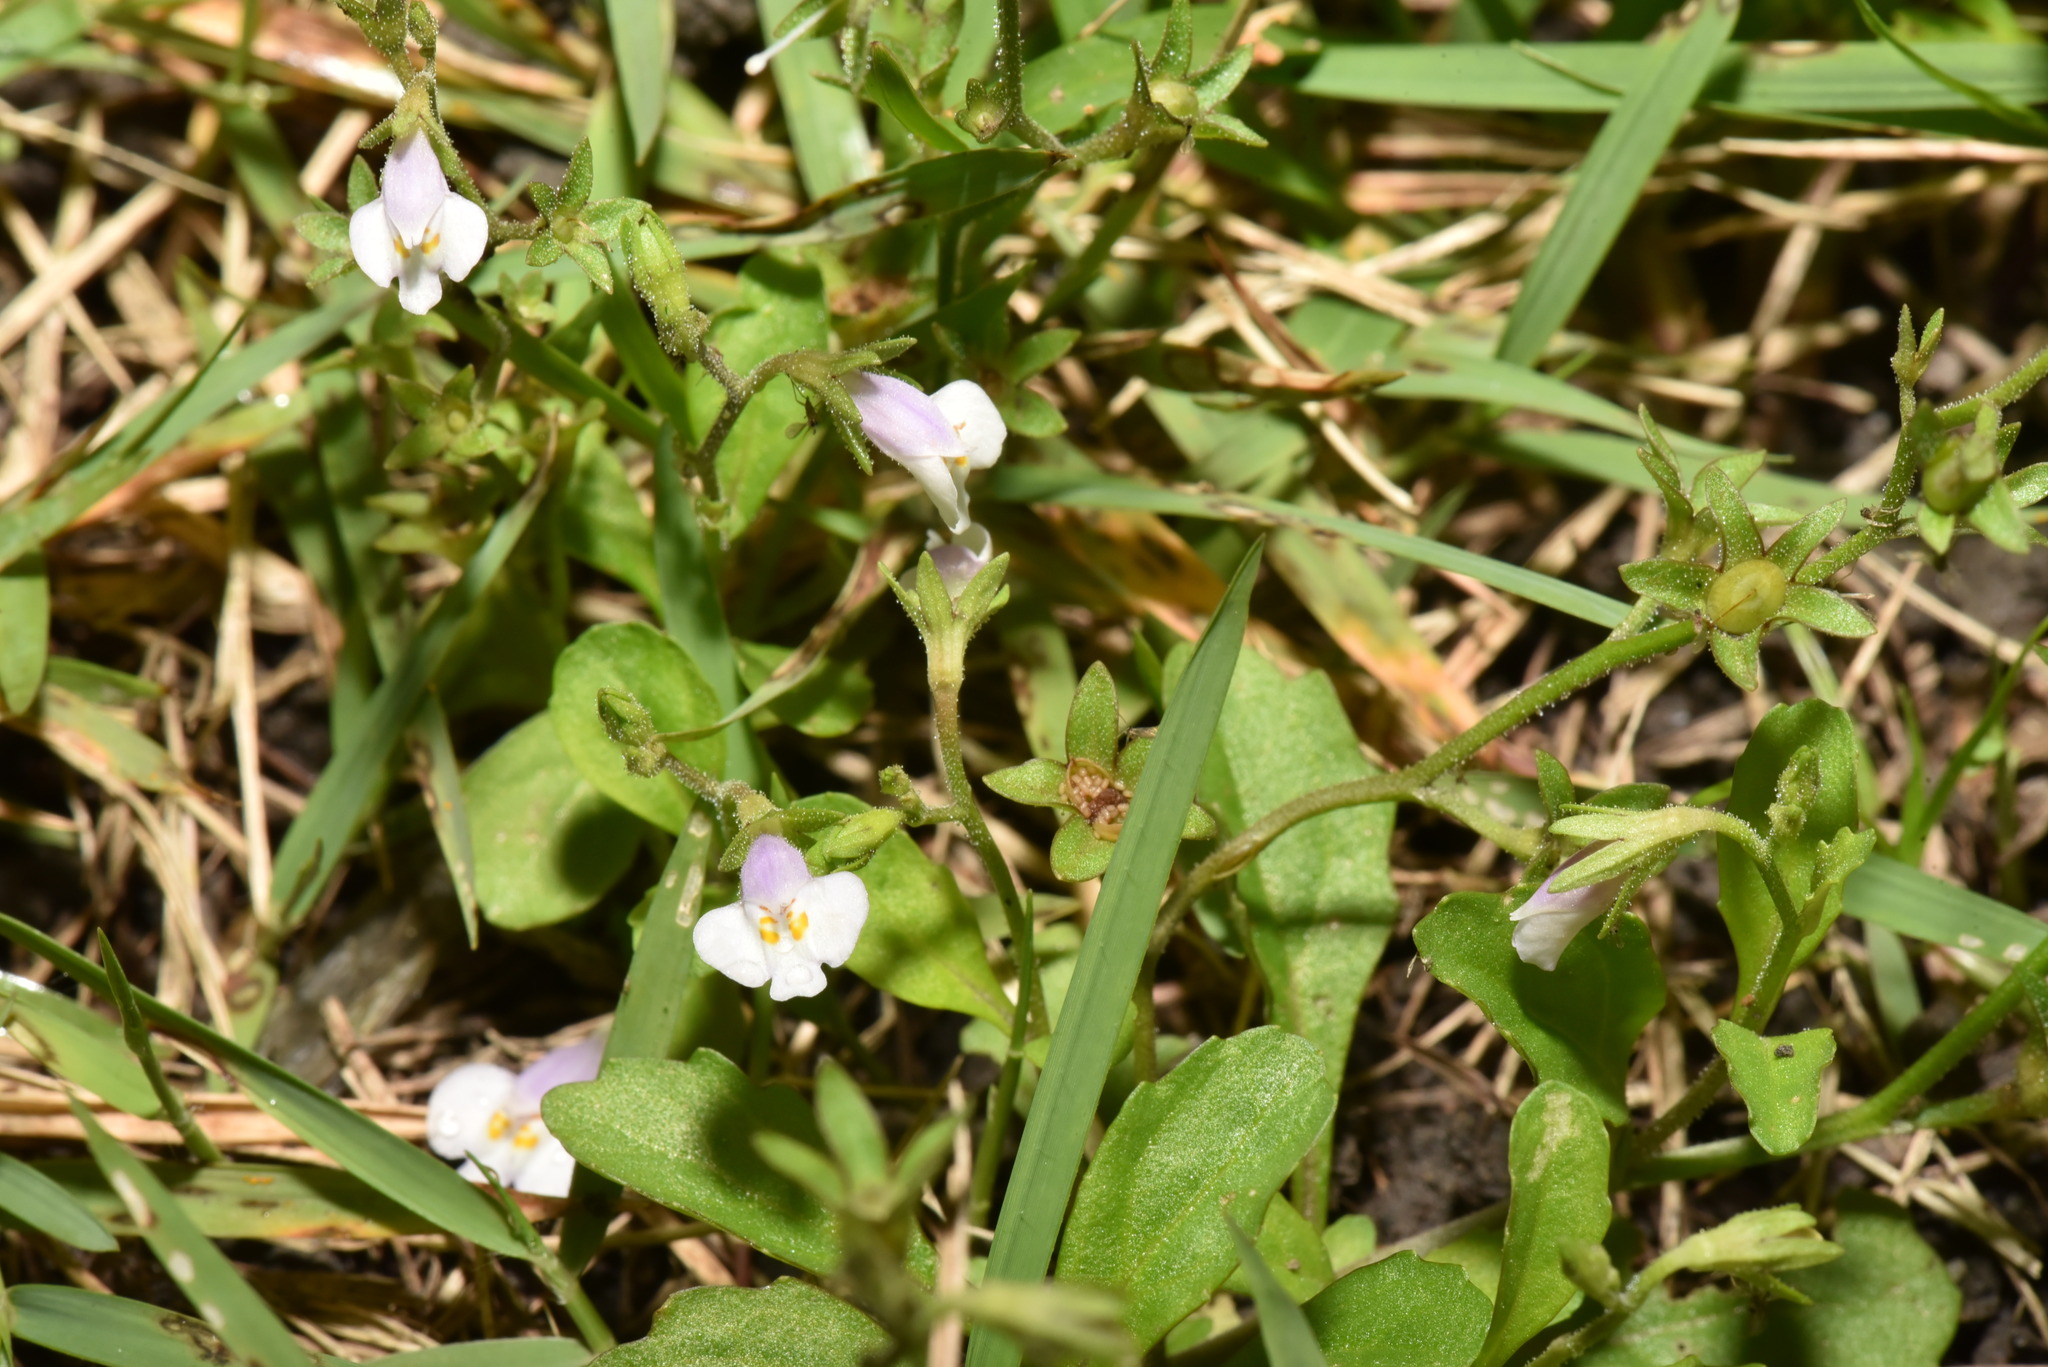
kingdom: Plantae
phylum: Tracheophyta
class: Magnoliopsida
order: Lamiales
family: Mazaceae
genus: Mazus
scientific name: Mazus pumilus
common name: Japanese mazus
